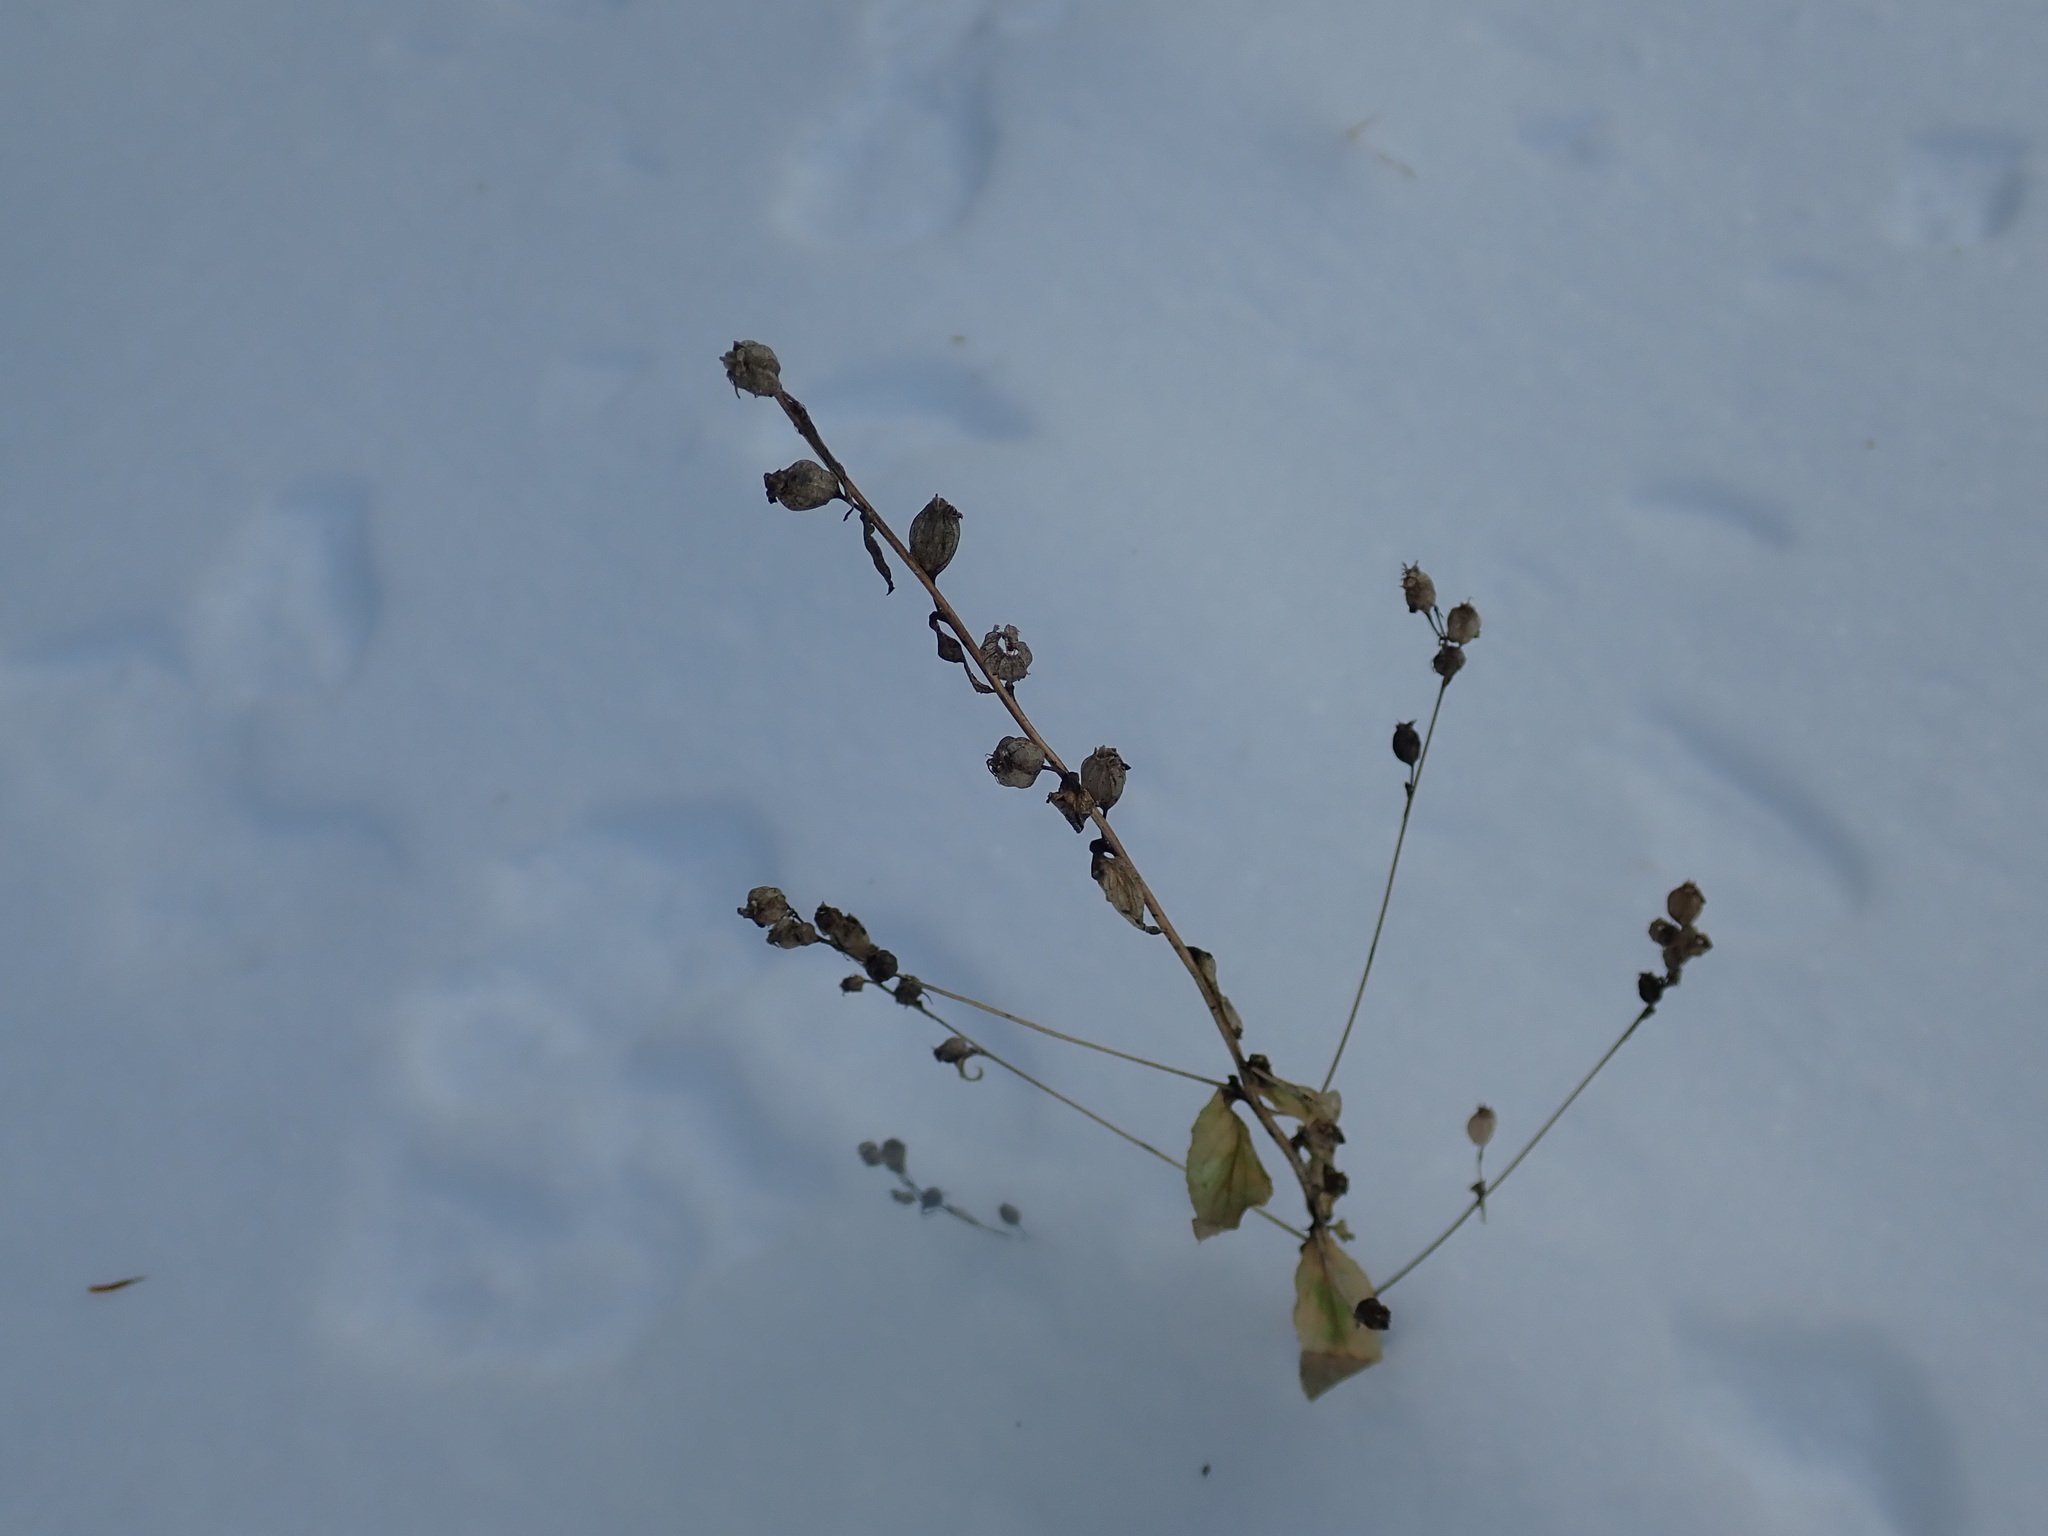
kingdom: Plantae
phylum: Tracheophyta
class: Magnoliopsida
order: Asterales
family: Campanulaceae
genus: Lobelia
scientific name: Lobelia inflata
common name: Indian tobacco
